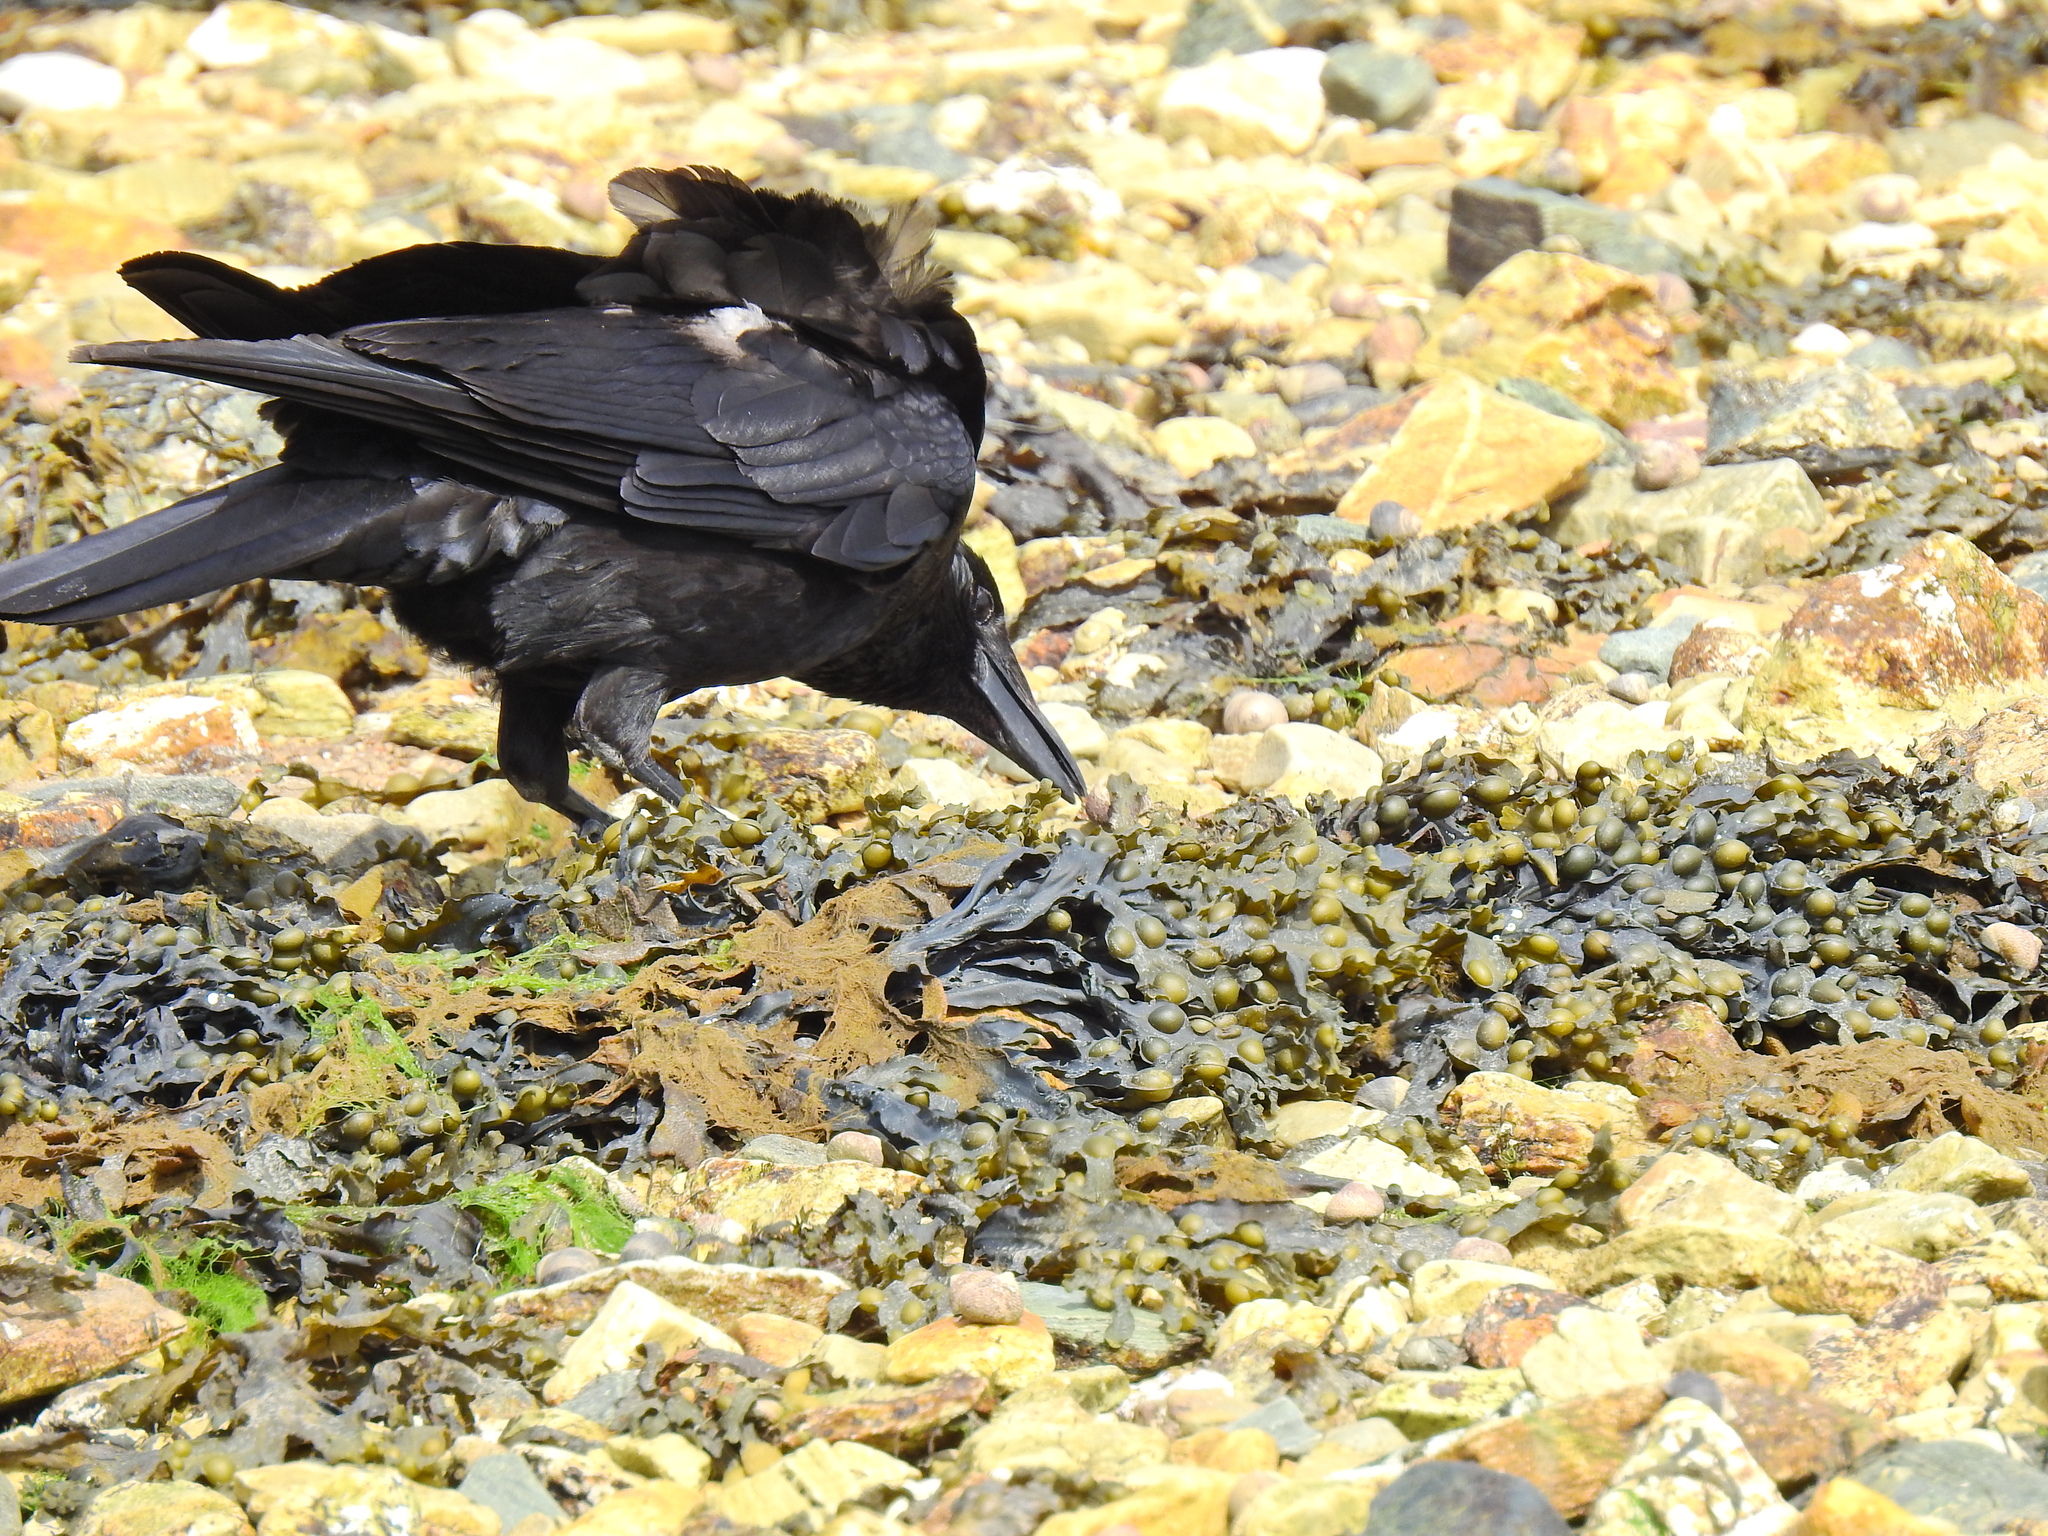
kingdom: Animalia
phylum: Chordata
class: Aves
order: Passeriformes
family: Corvidae
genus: Corvus
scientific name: Corvus corone
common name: Carrion crow
